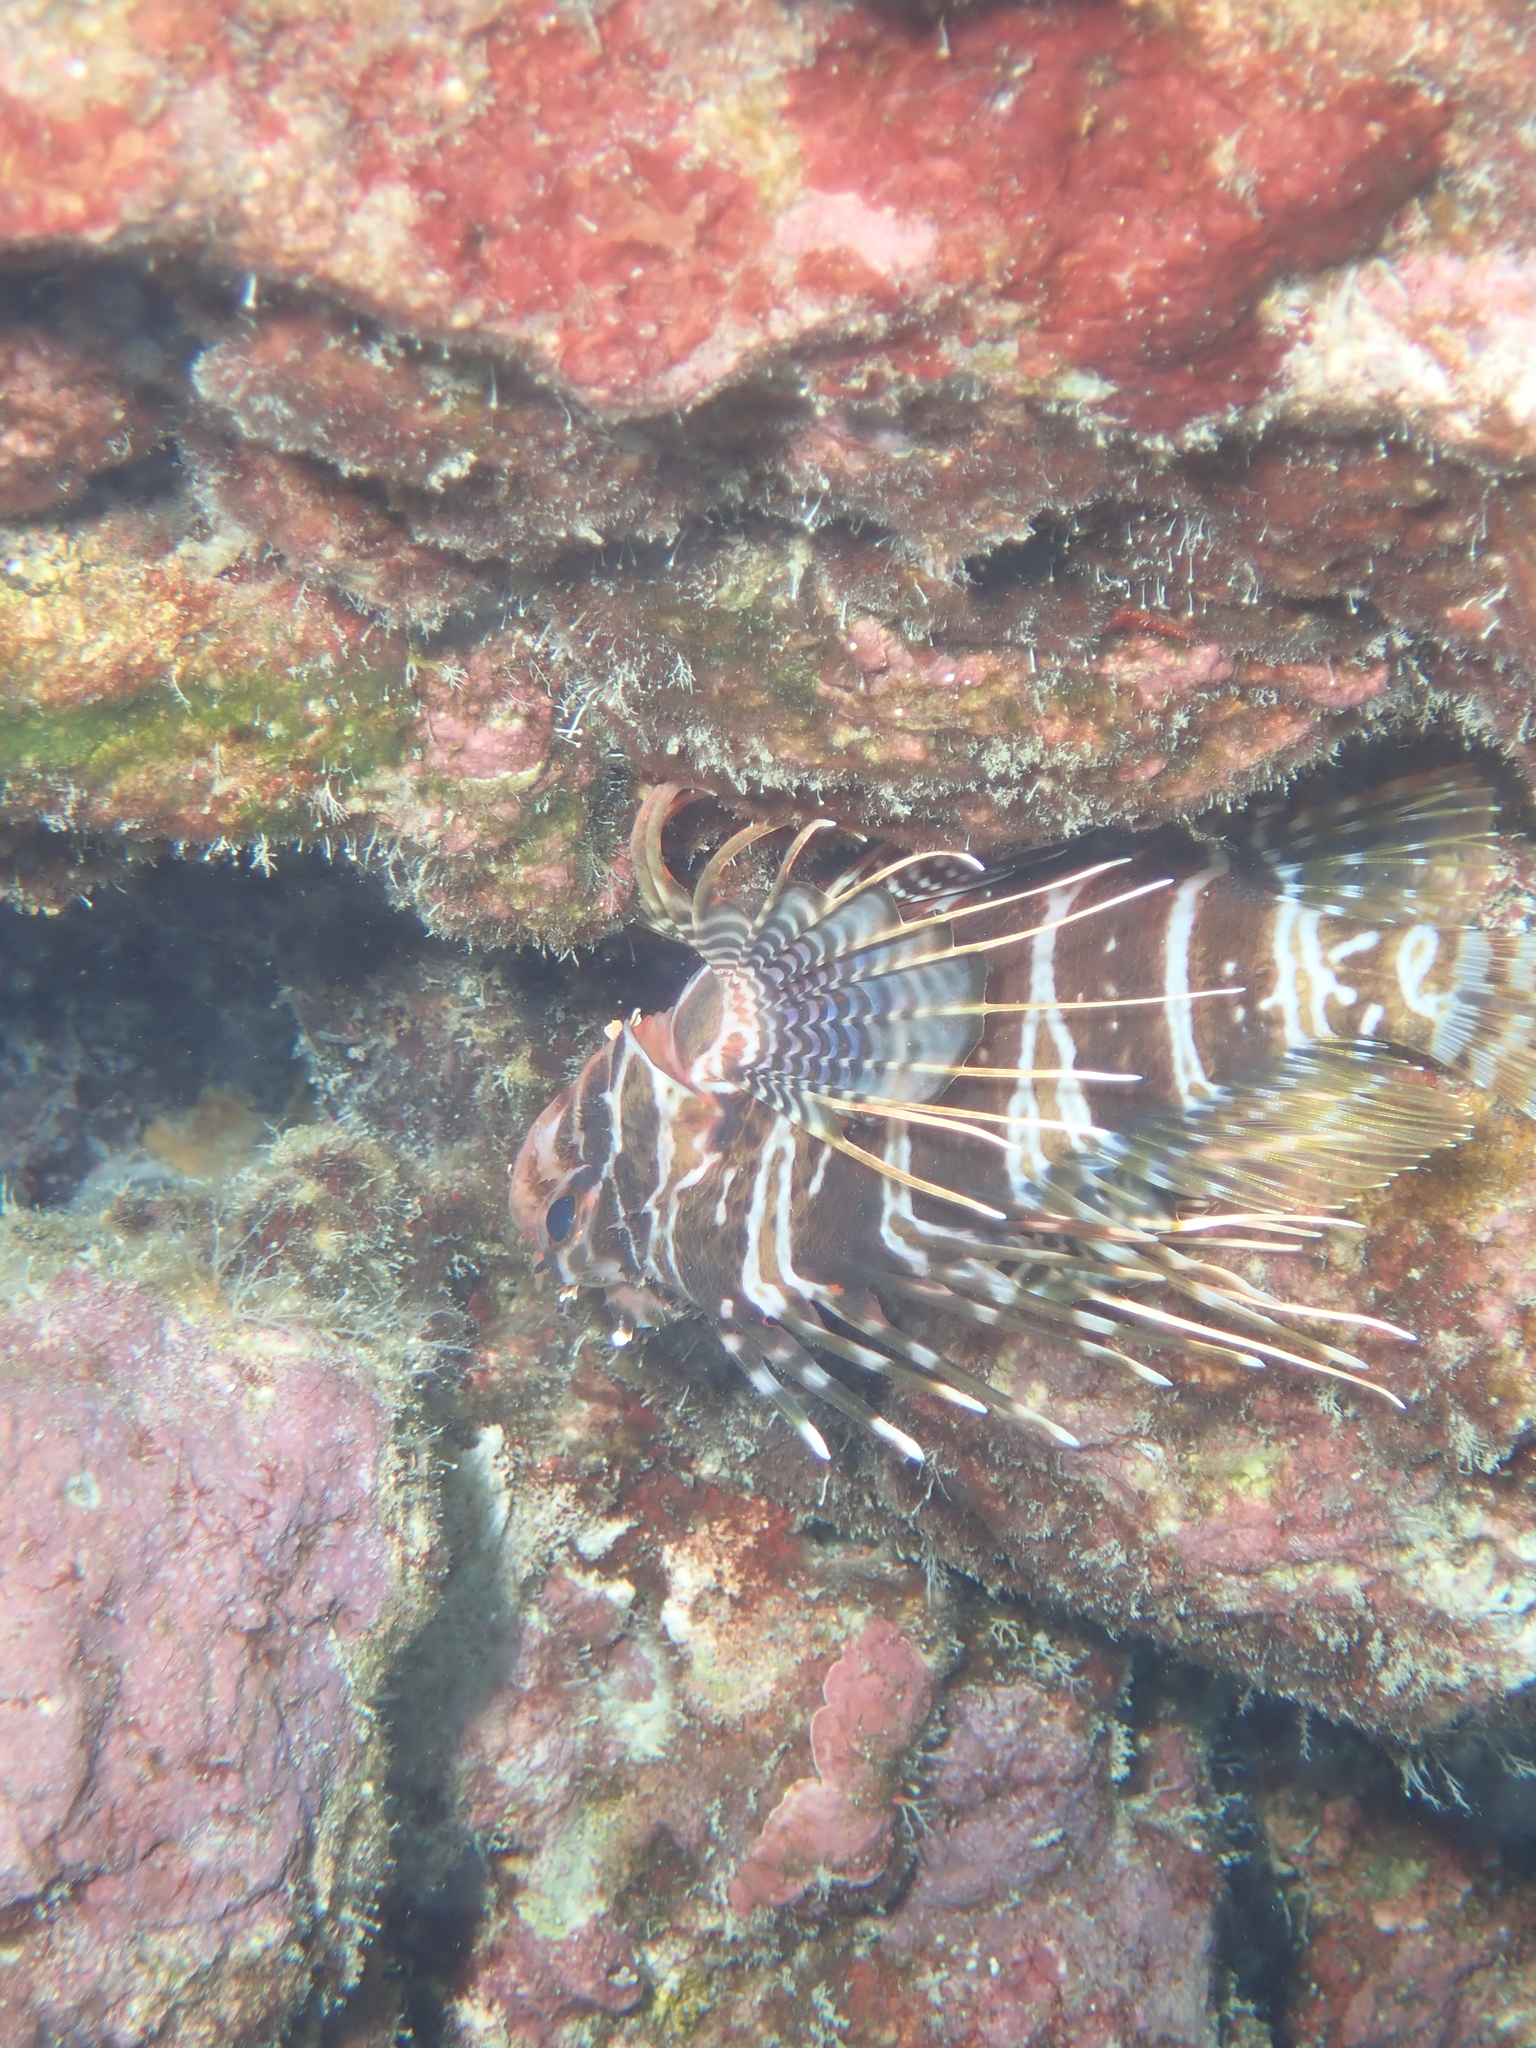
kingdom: Animalia
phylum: Chordata
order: Scorpaeniformes
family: Scorpaenidae
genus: Pterois
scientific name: Pterois sphex
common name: Hawaiian turkeyfish
